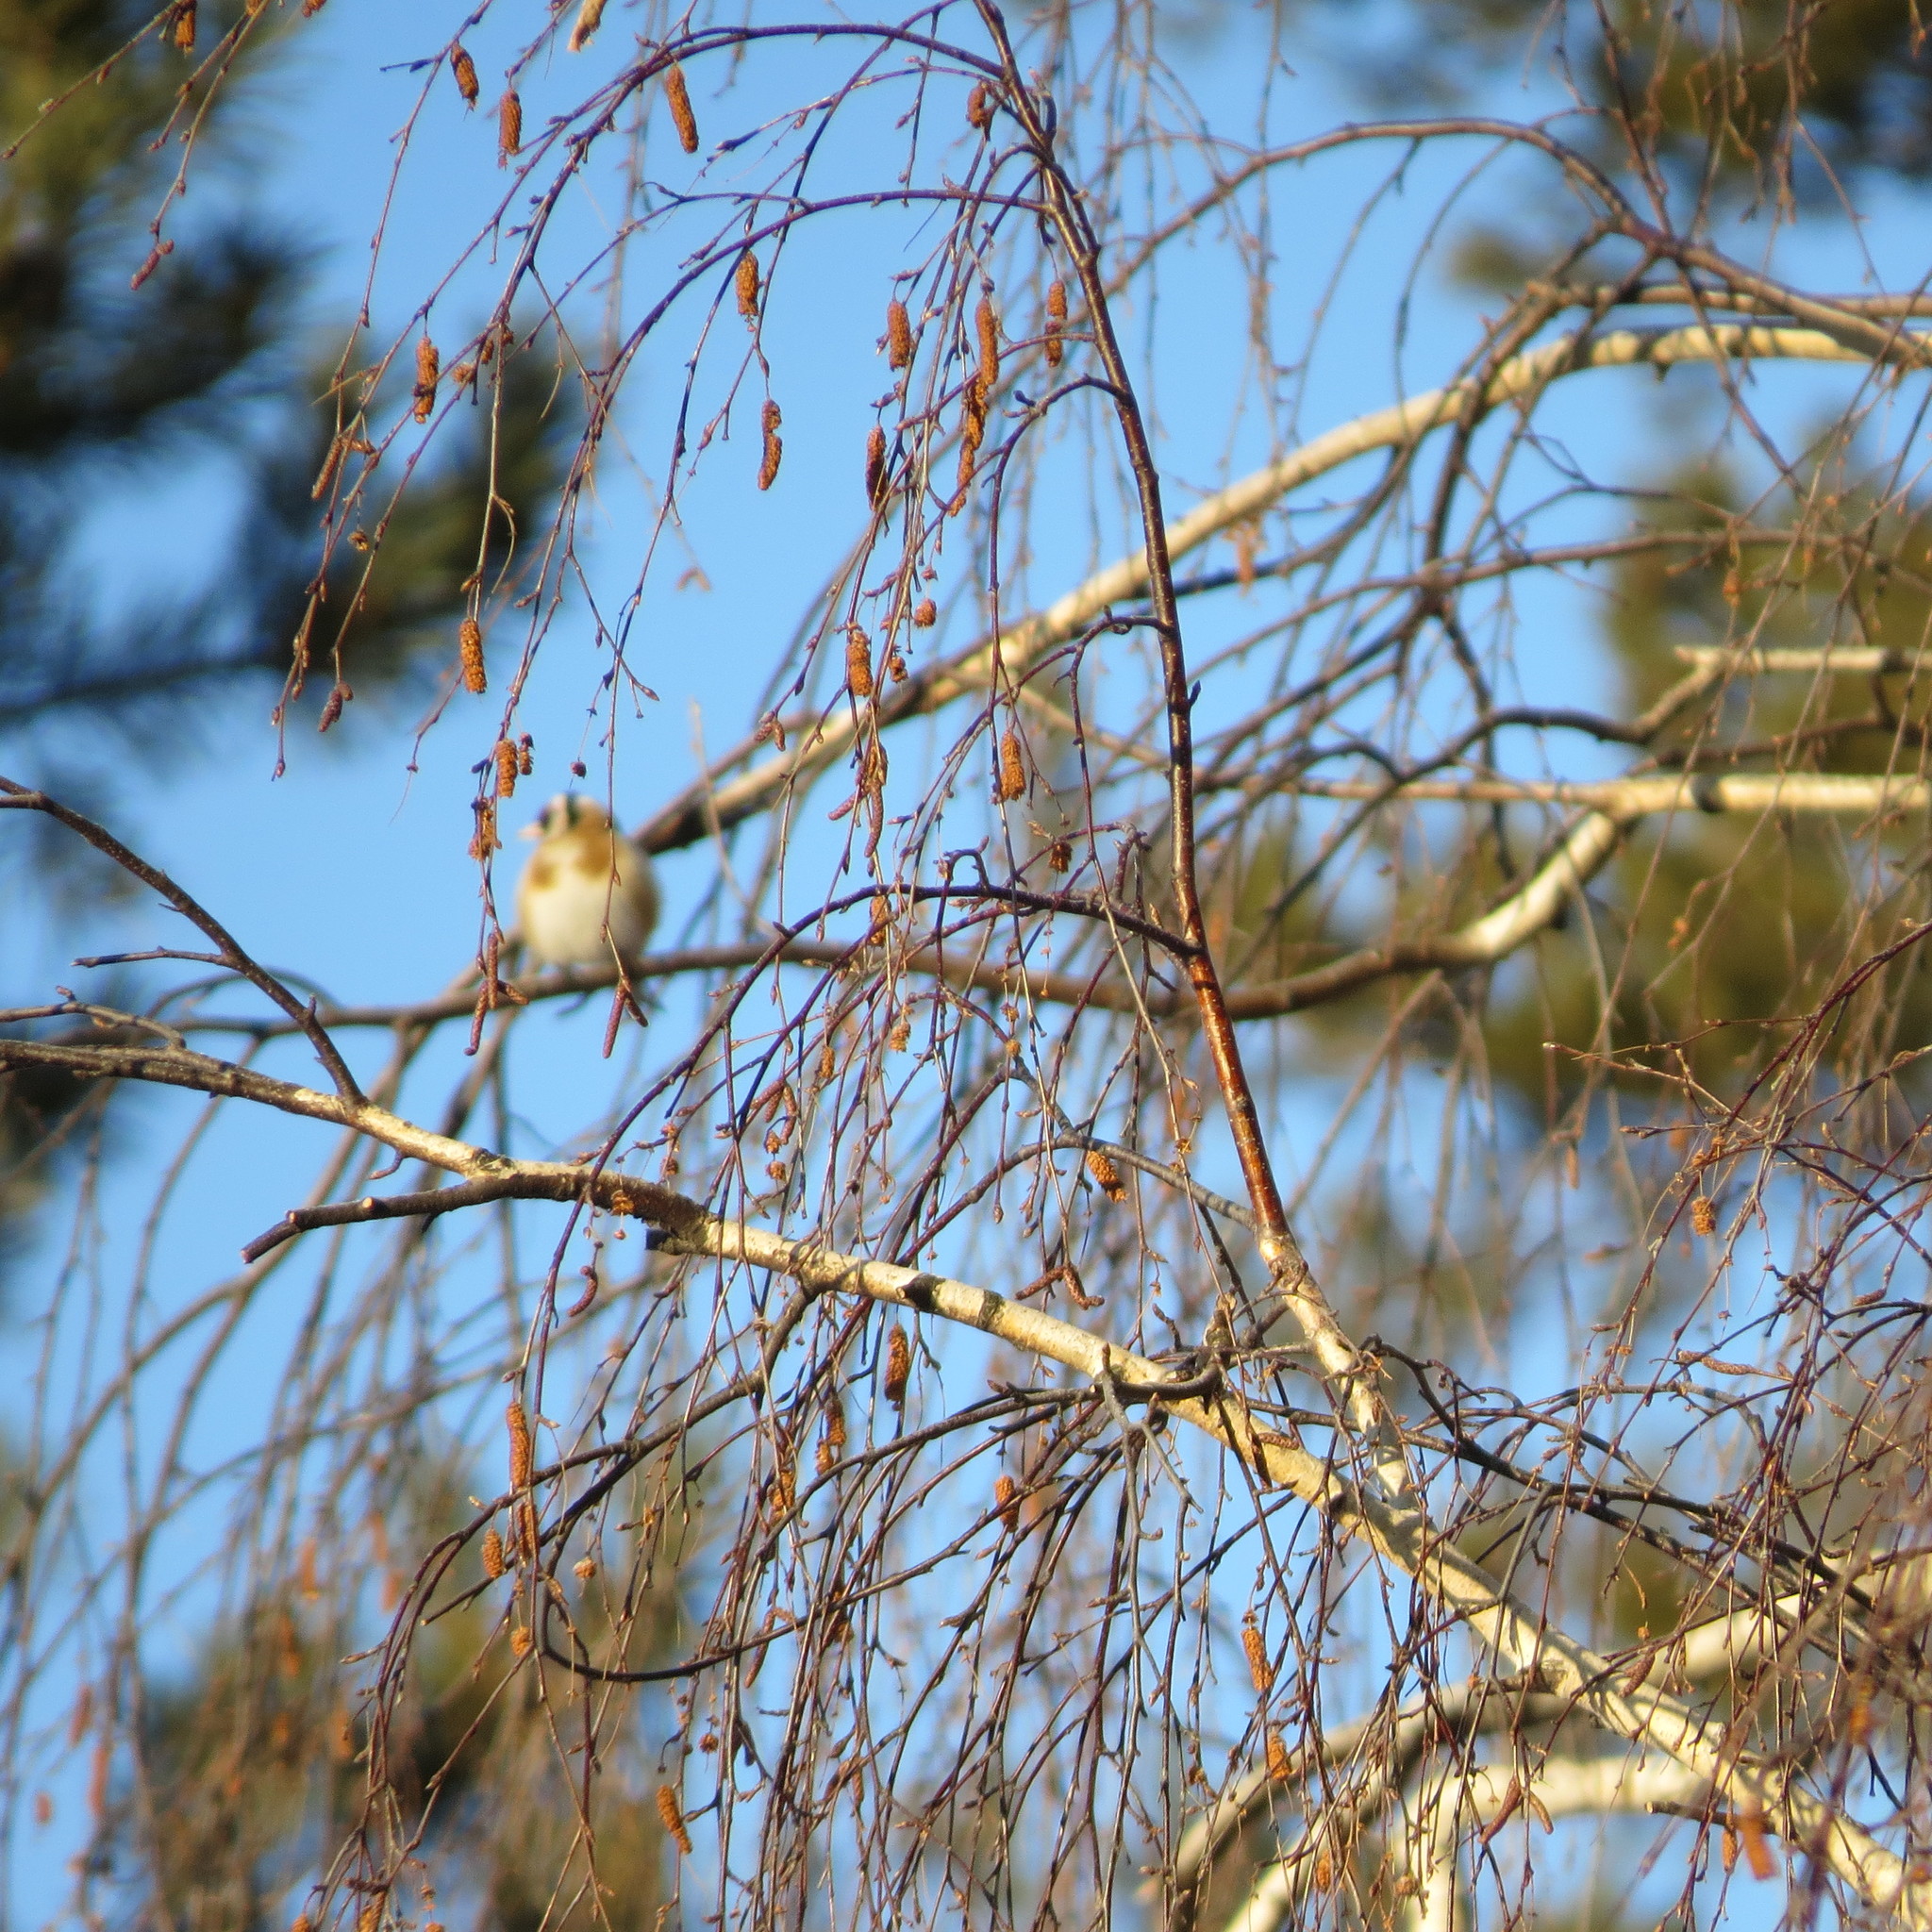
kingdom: Animalia
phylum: Chordata
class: Aves
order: Passeriformes
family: Fringillidae
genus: Carduelis
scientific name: Carduelis carduelis
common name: European goldfinch
